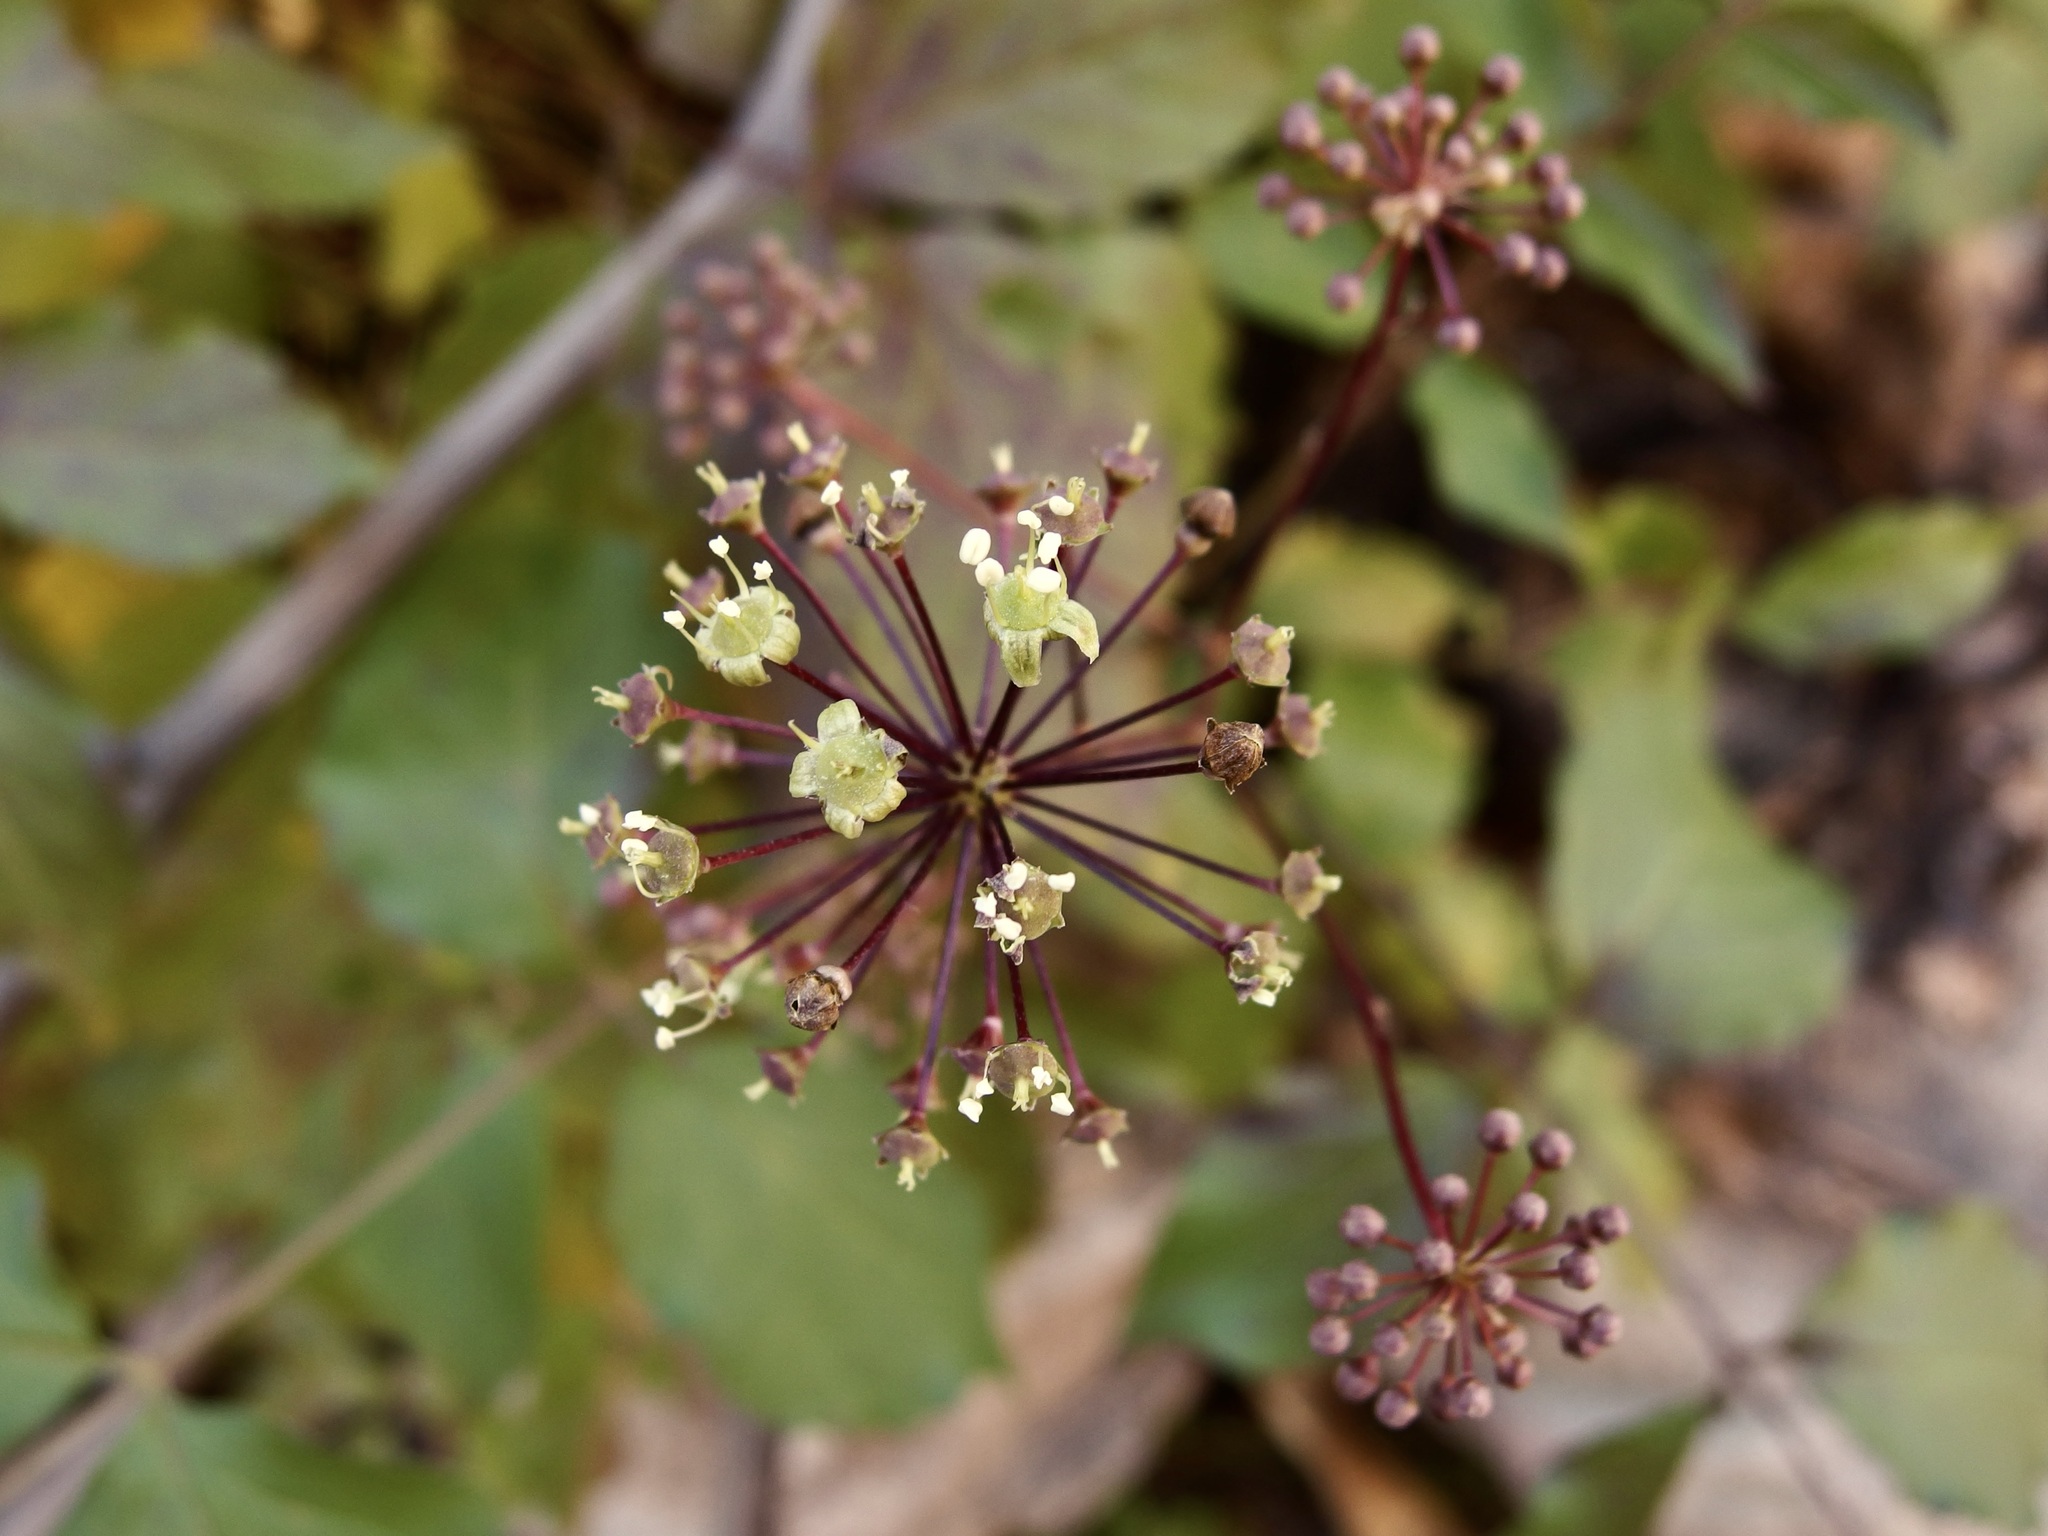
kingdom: Plantae
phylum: Tracheophyta
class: Magnoliopsida
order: Apiales
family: Araliaceae
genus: Aralia
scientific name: Aralia humilis
